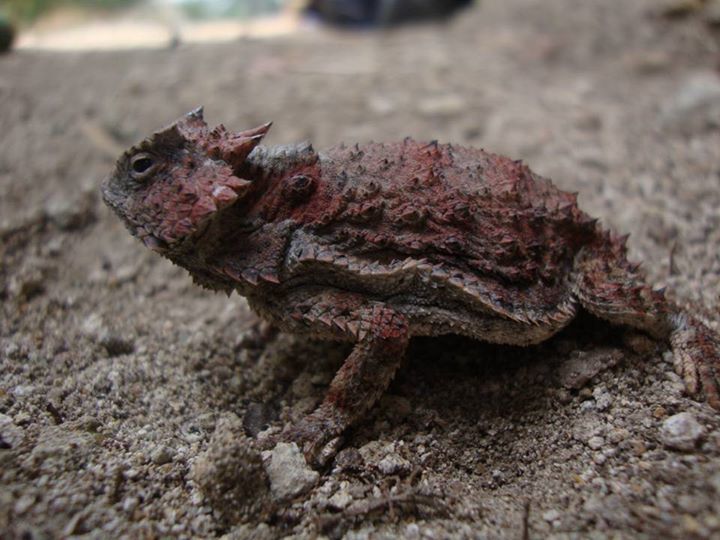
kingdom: Animalia
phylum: Chordata
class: Squamata
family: Phrynosomatidae
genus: Phrynosoma
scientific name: Phrynosoma braconnieri
